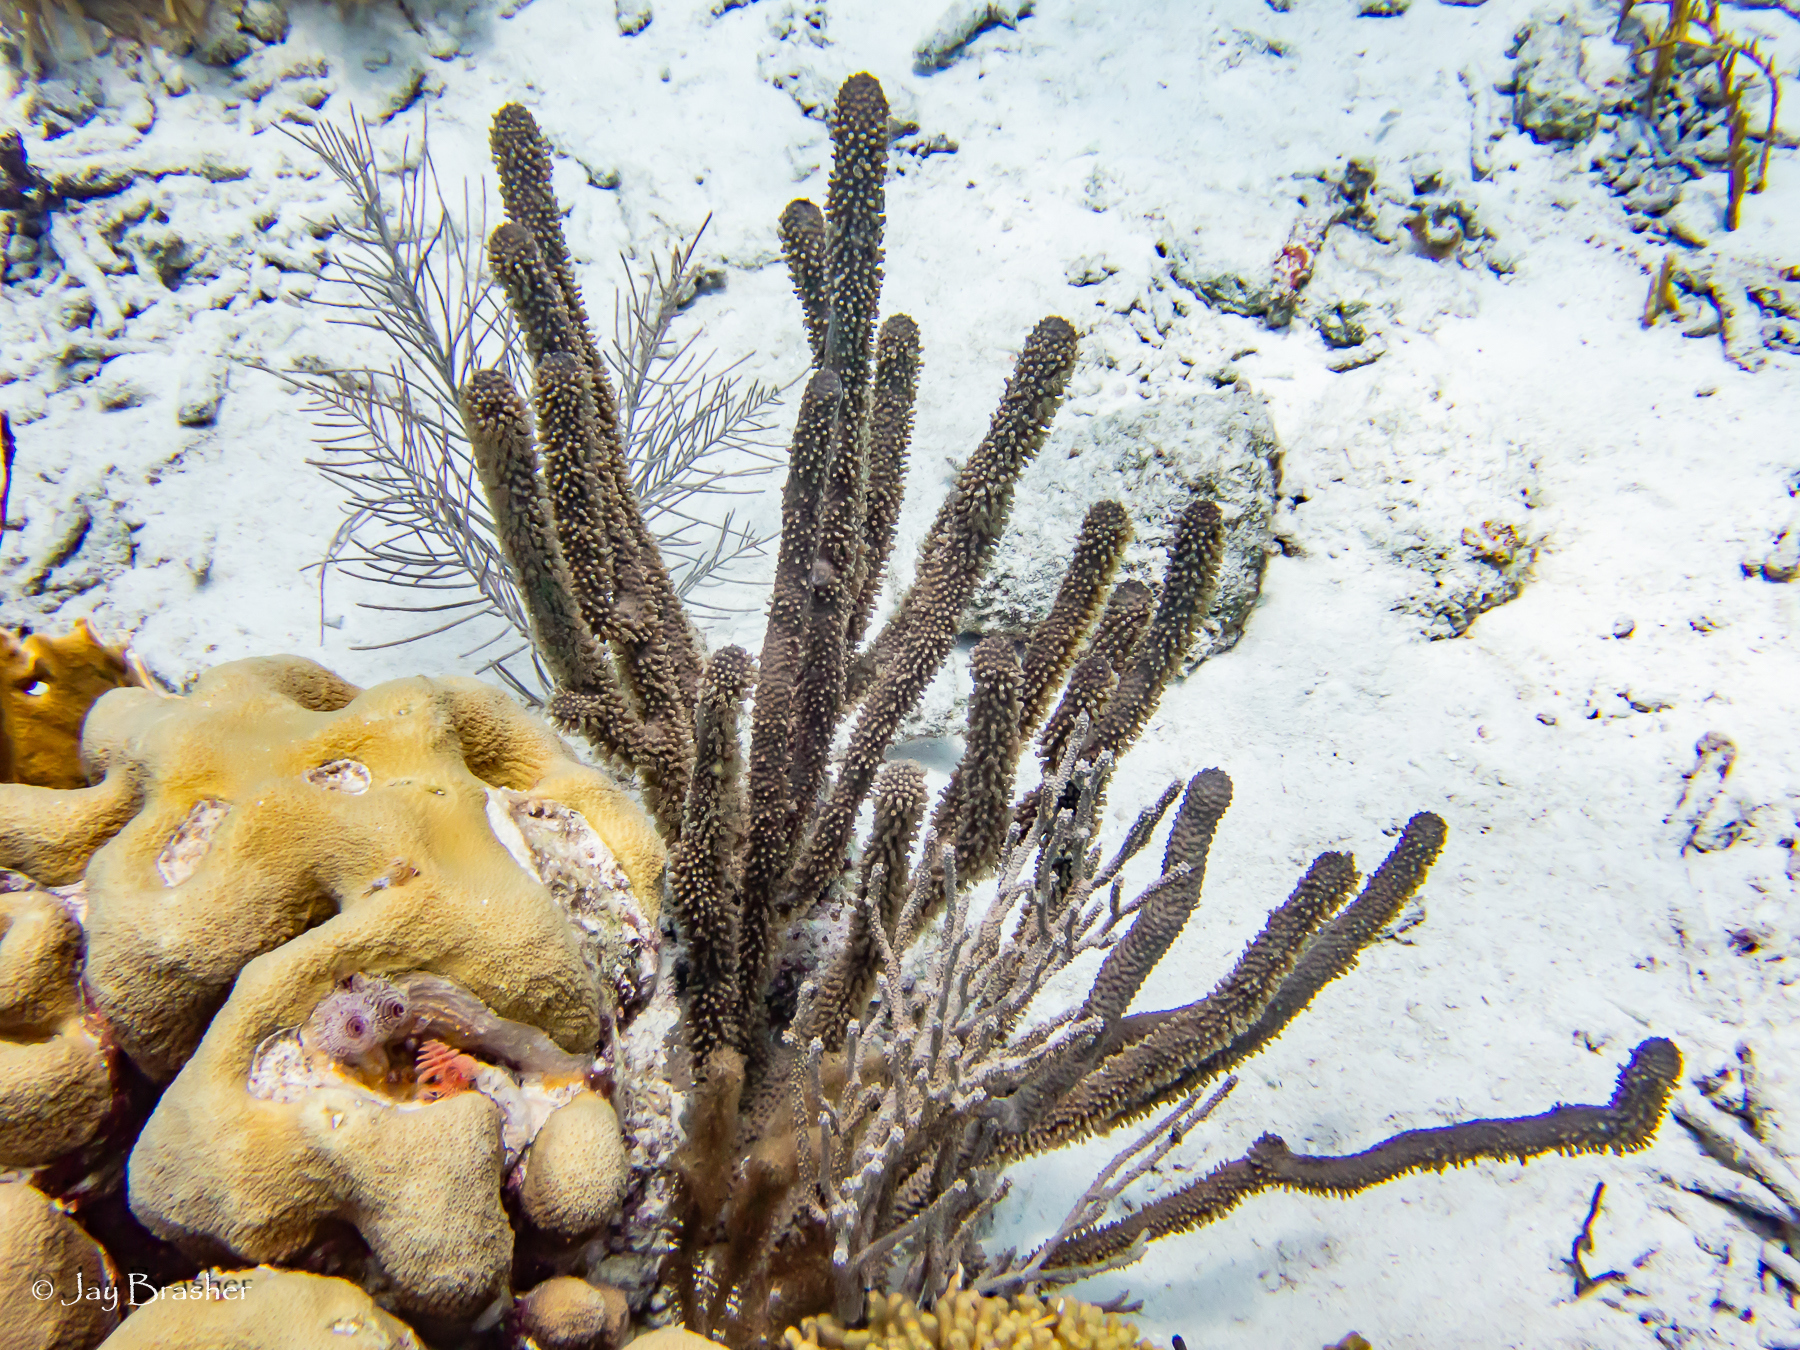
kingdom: Animalia
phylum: Cnidaria
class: Anthozoa
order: Scleractinia
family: Merulinidae
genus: Orbicella
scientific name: Orbicella annularis
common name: Boulder star coral
